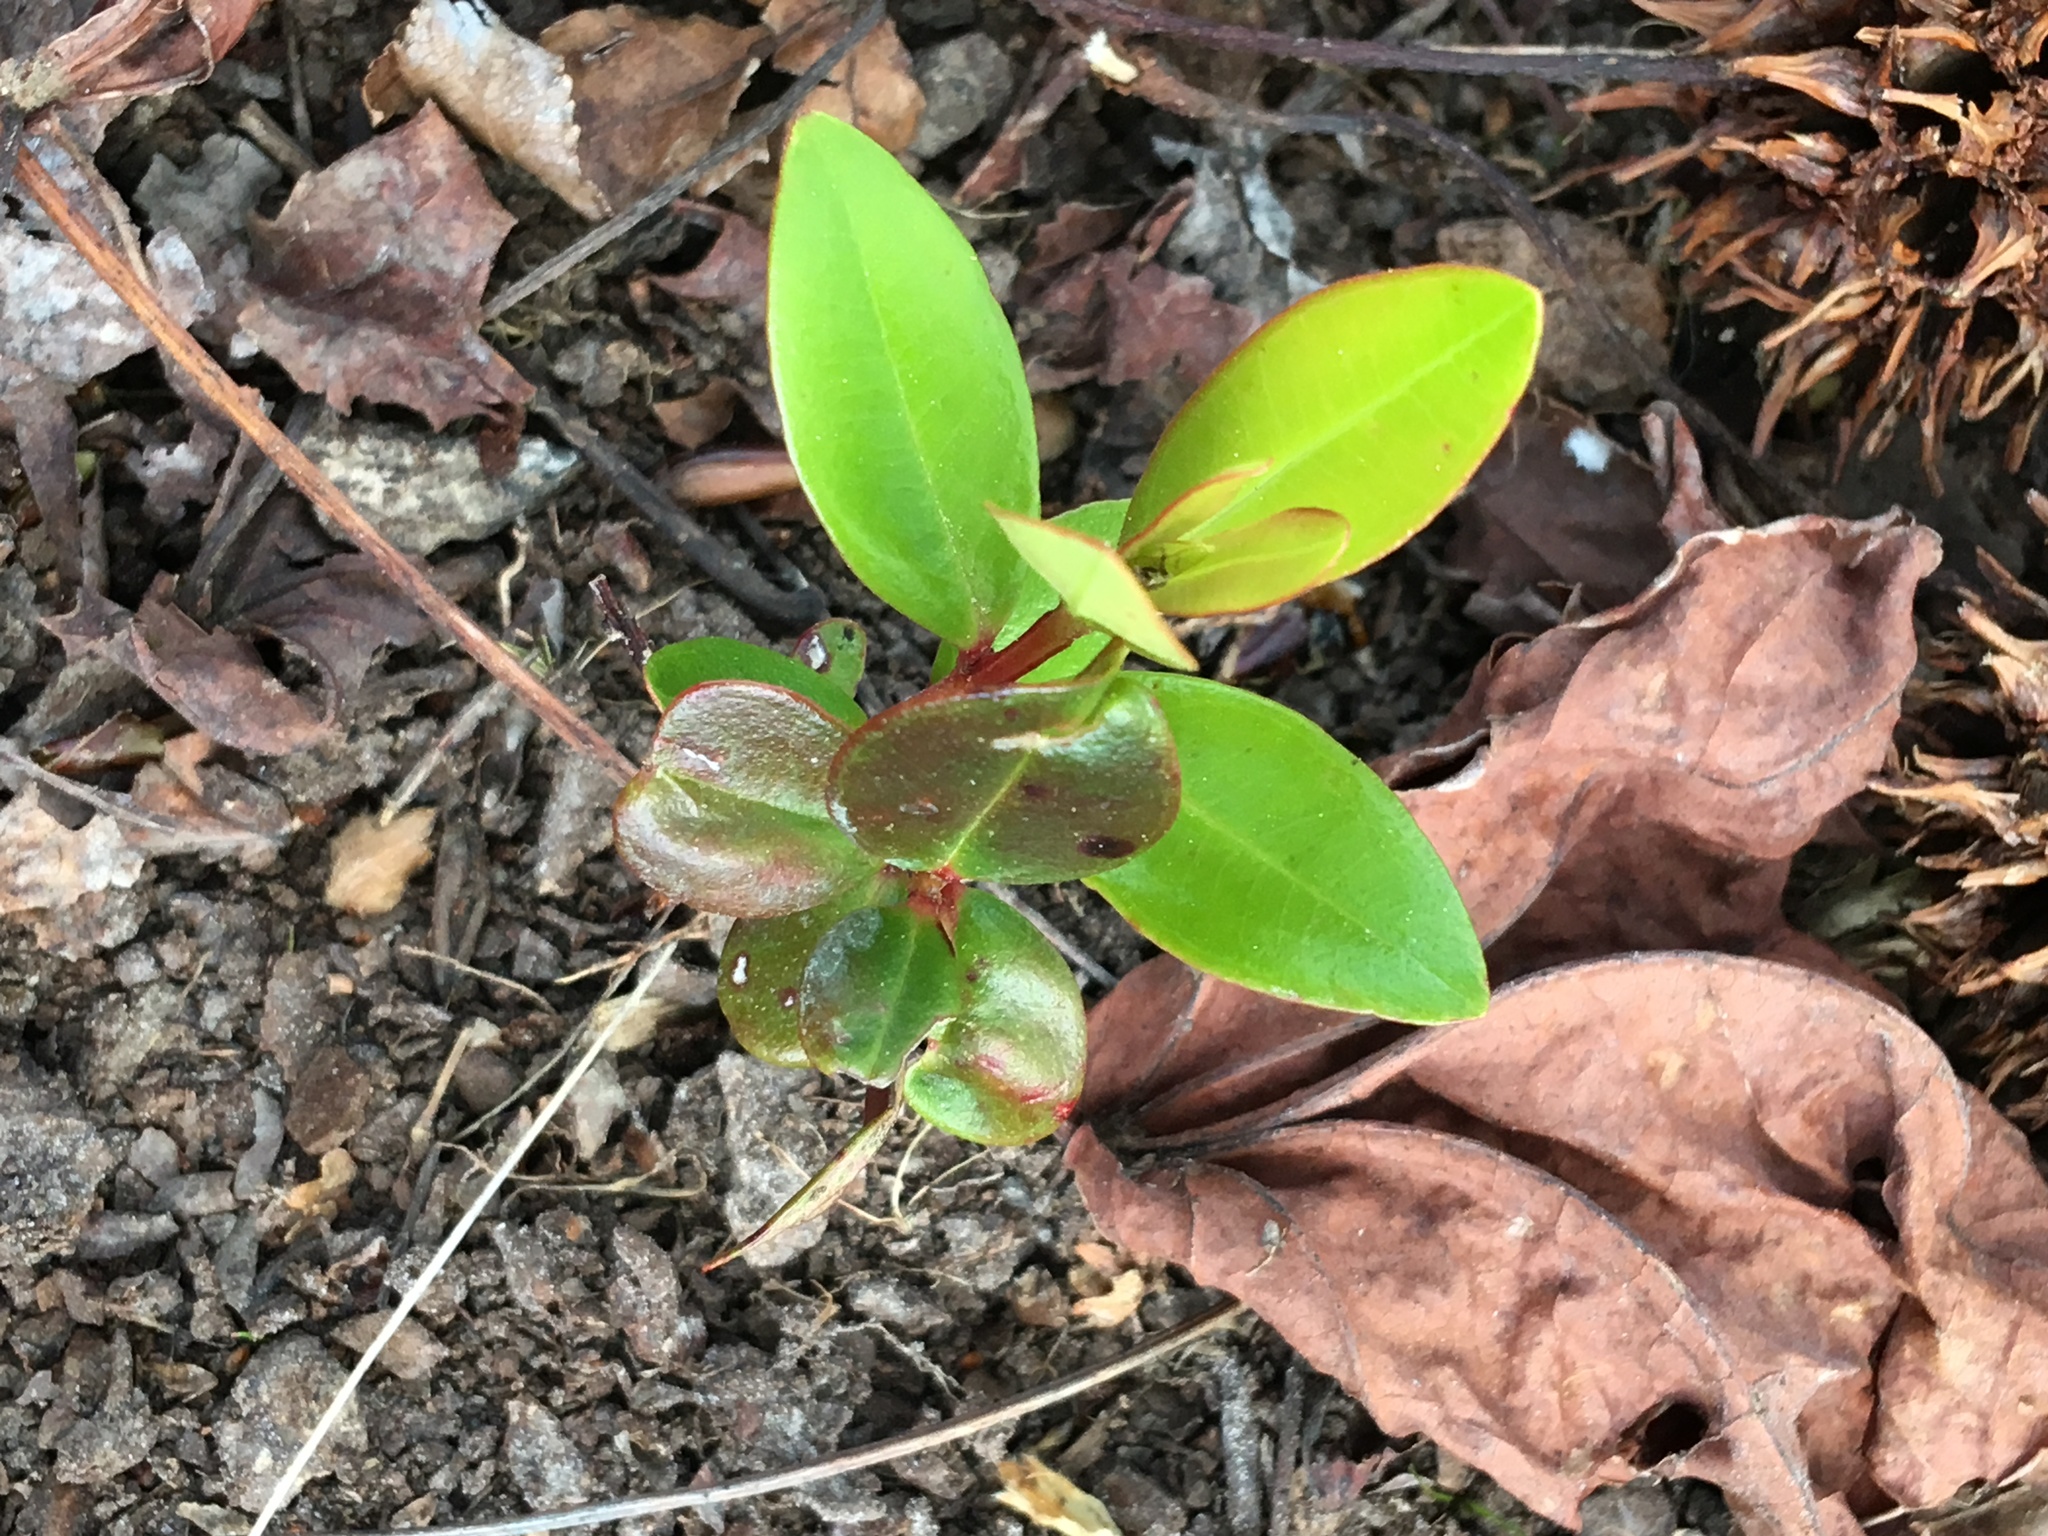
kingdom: Plantae
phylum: Tracheophyta
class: Magnoliopsida
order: Myrtales
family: Myrtaceae
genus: Metrosideros
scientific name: Metrosideros excelsa
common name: New zealand christmastree
